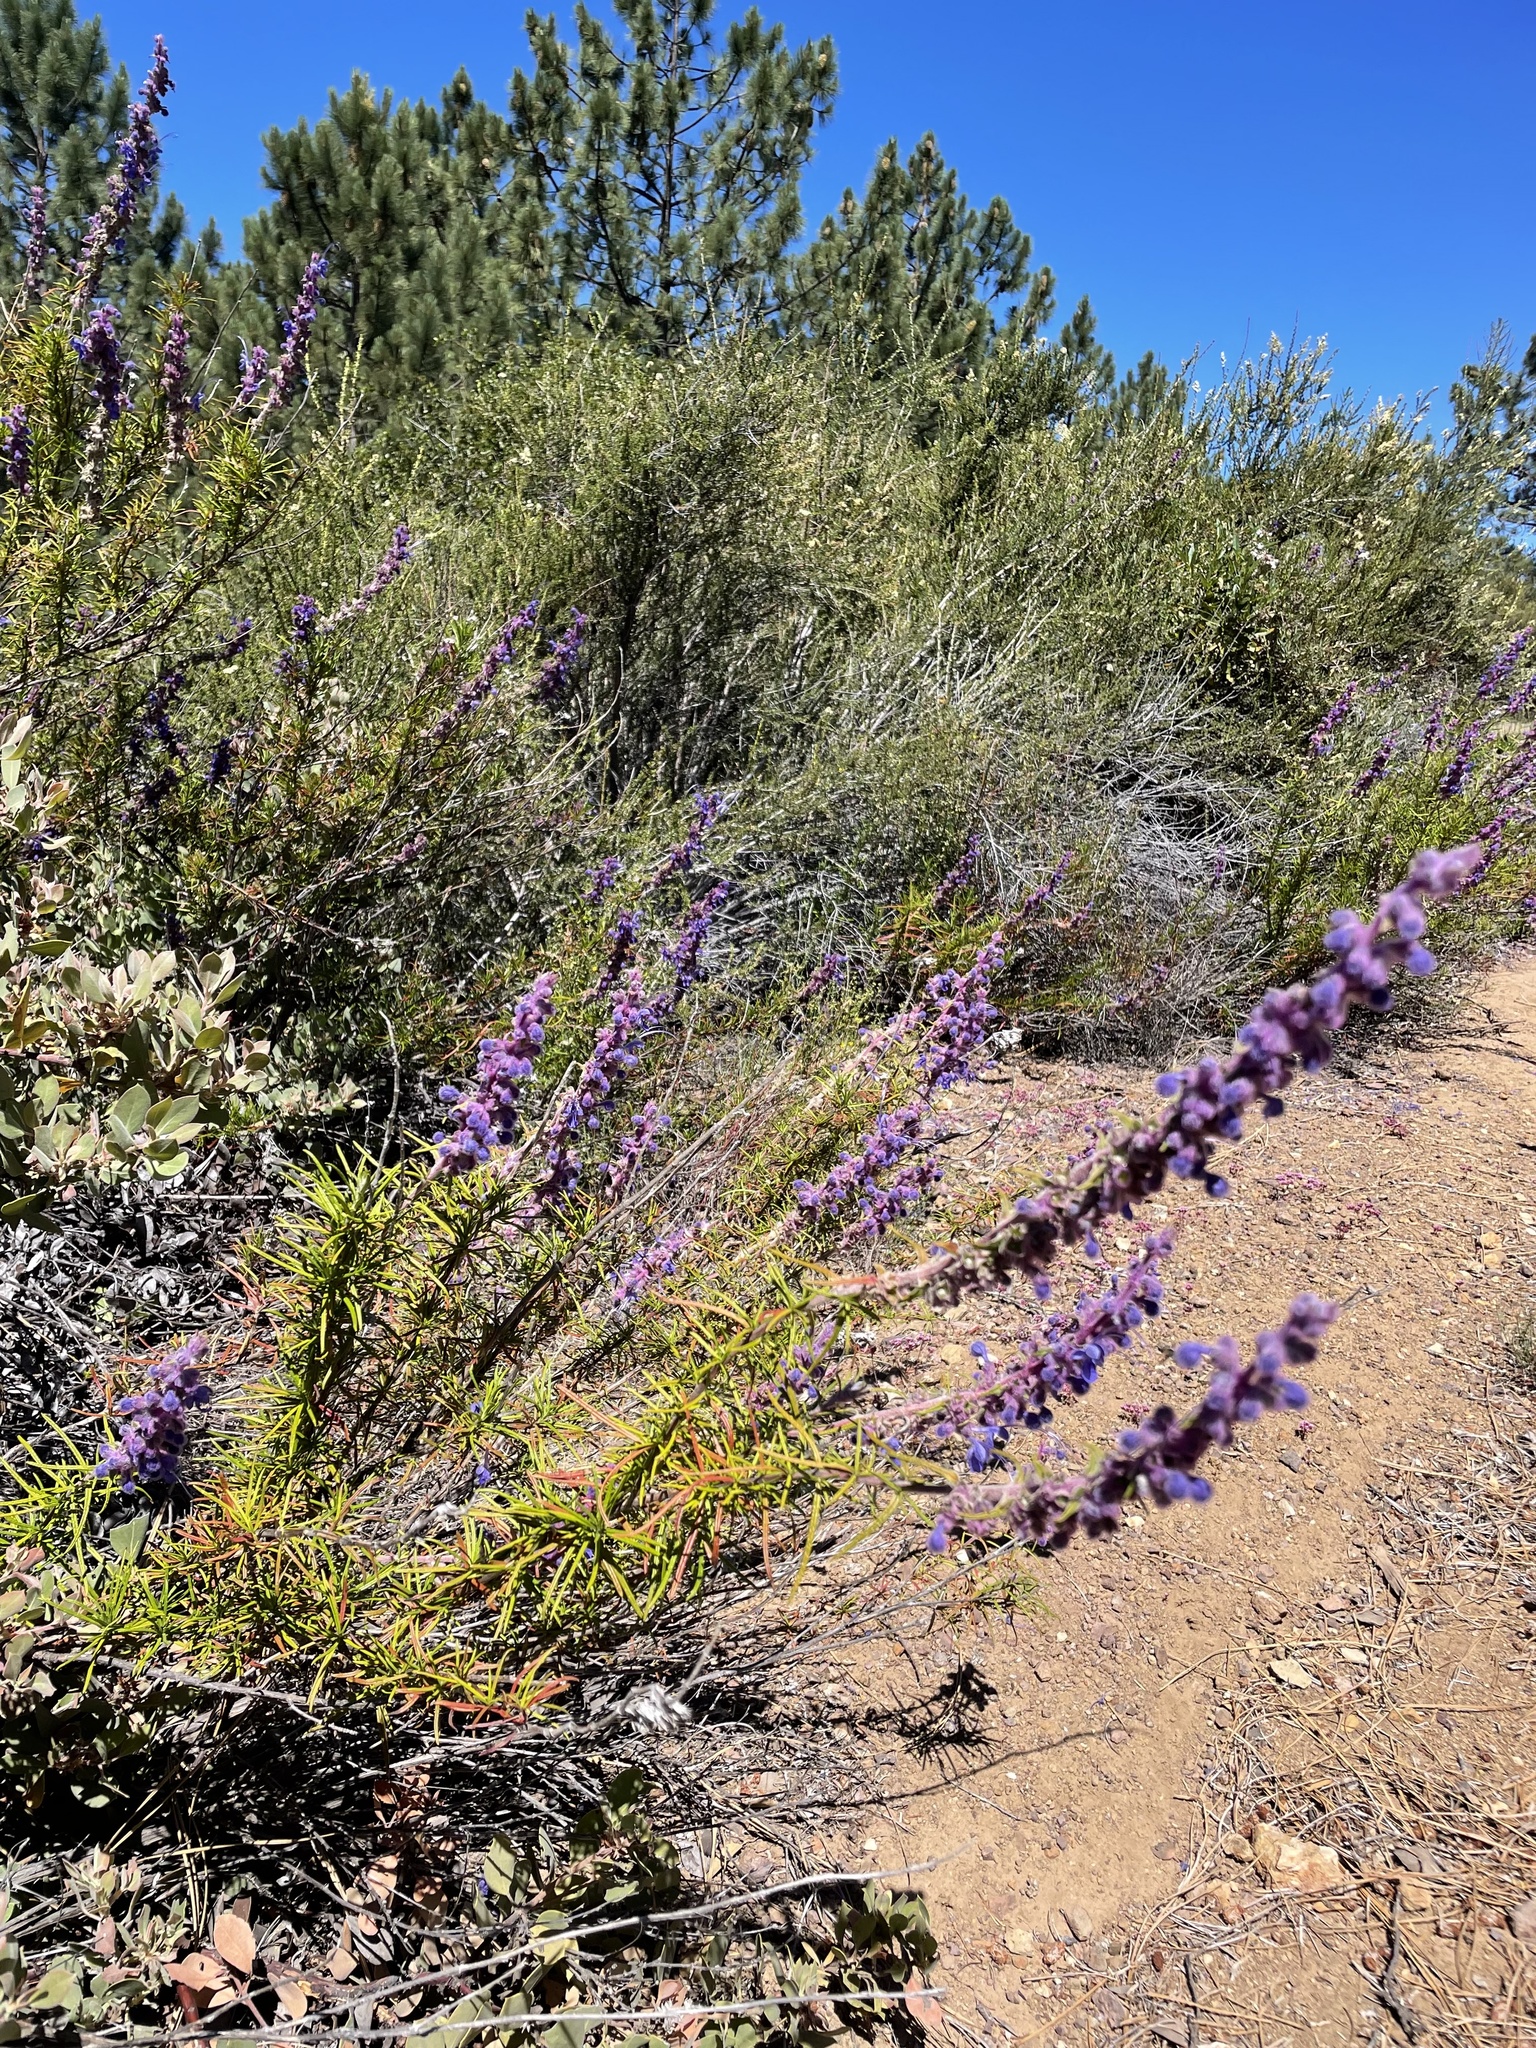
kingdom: Plantae
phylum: Tracheophyta
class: Magnoliopsida
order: Lamiales
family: Lamiaceae
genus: Trichostema
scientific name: Trichostema lanatum
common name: Woolly bluecurls
